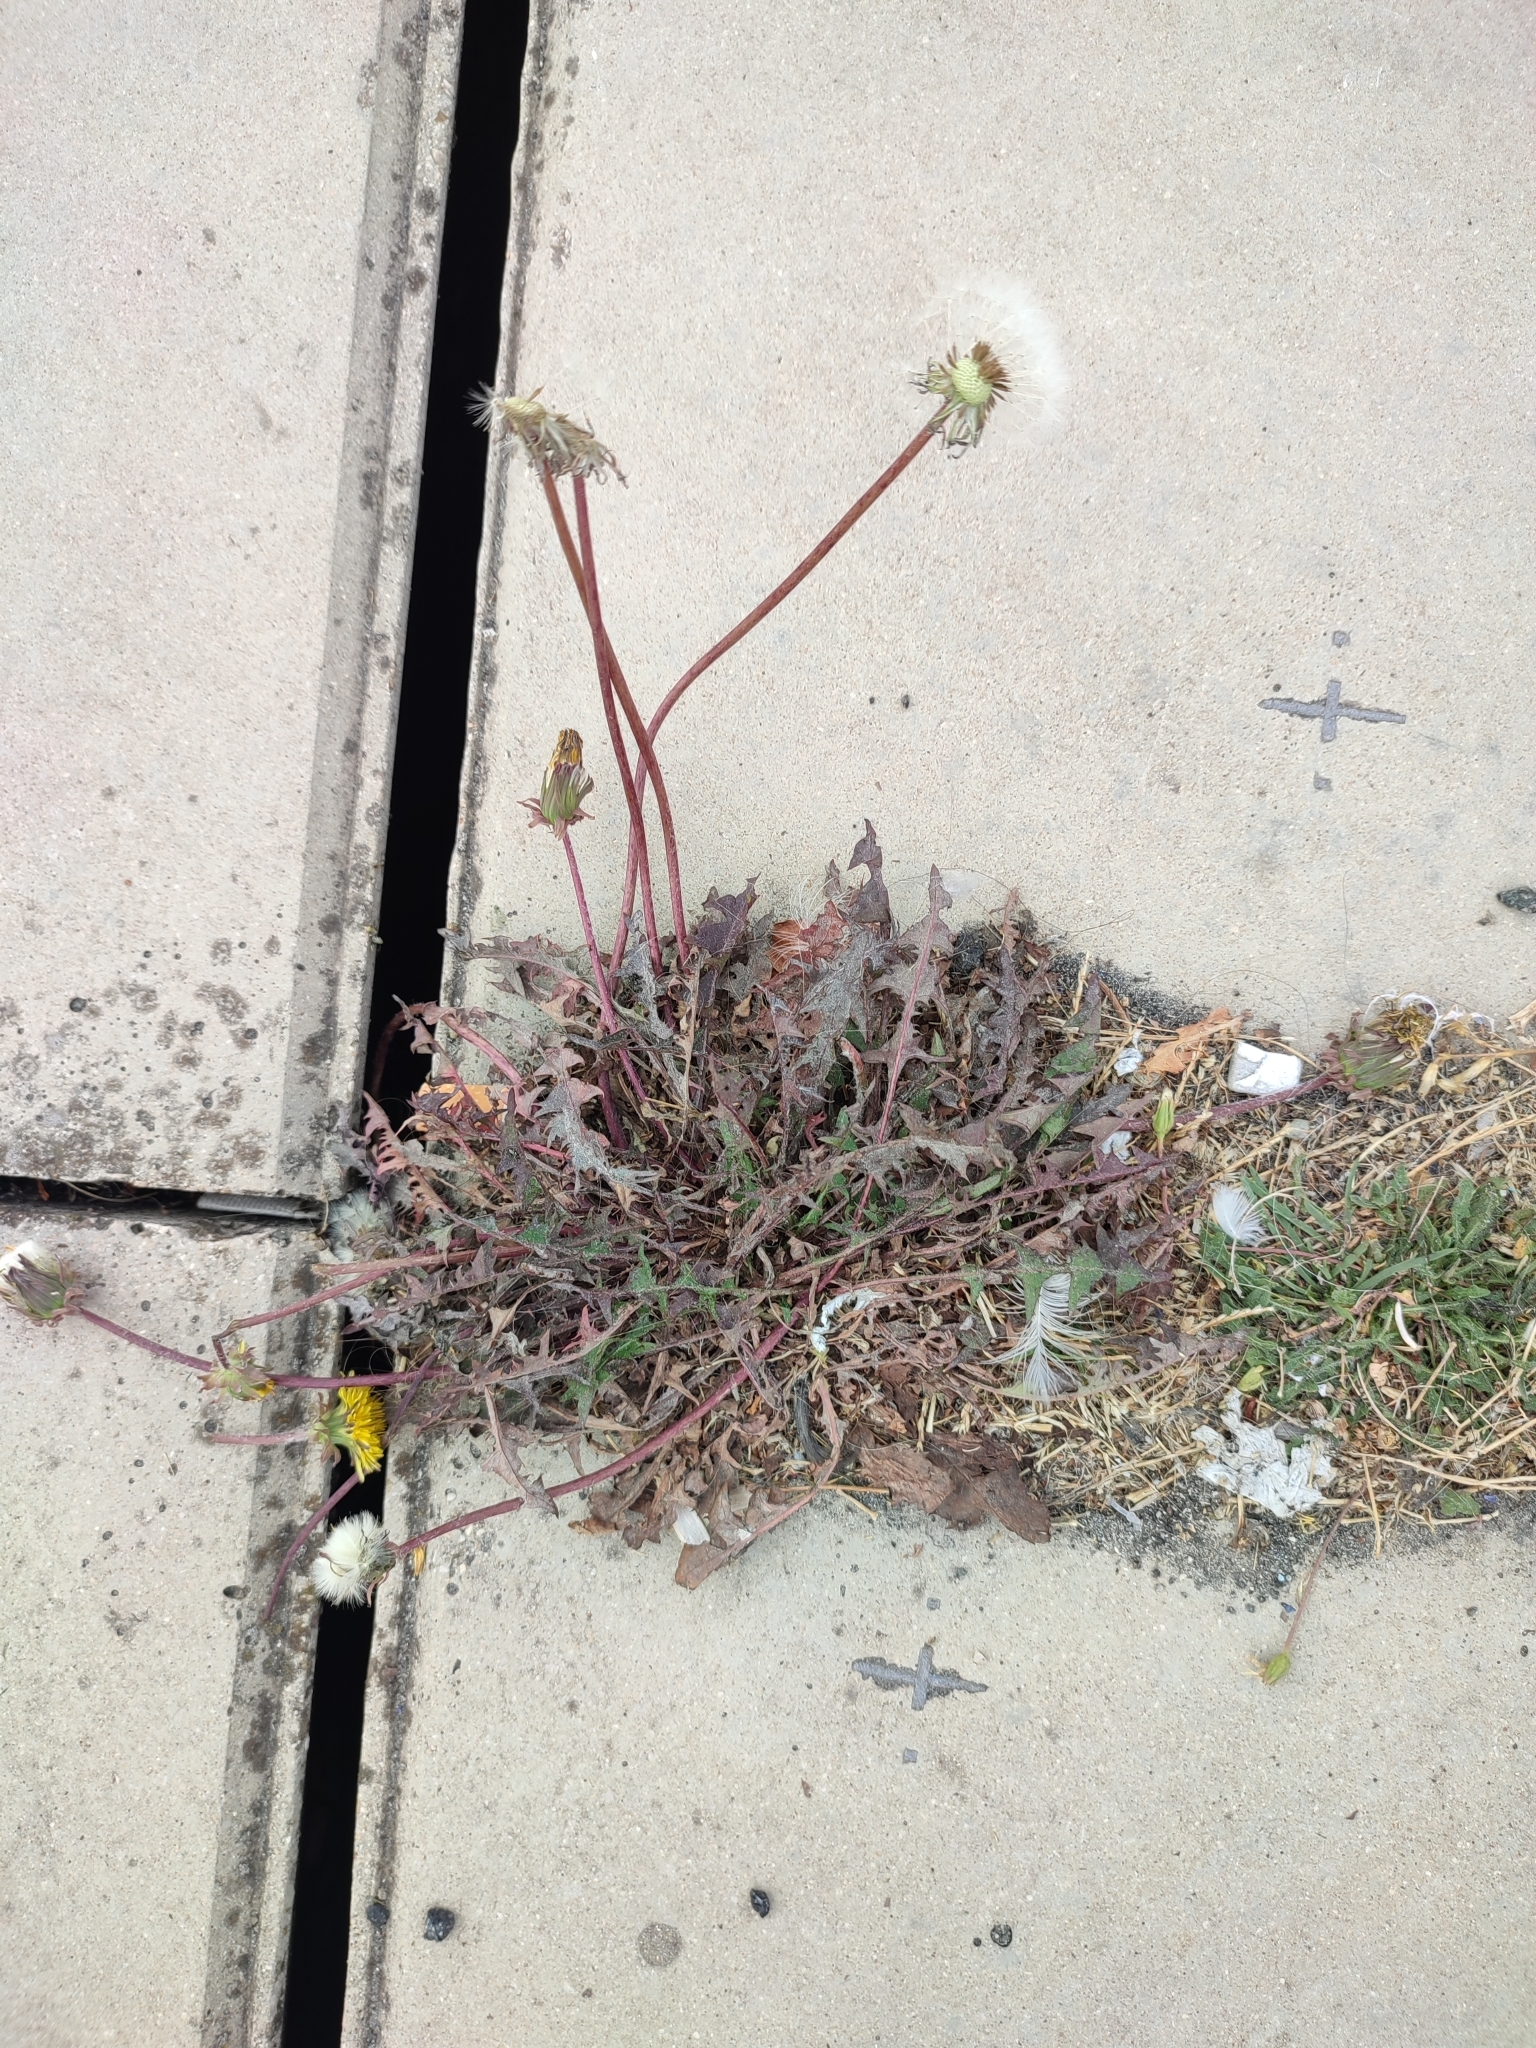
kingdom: Plantae
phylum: Tracheophyta
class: Magnoliopsida
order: Asterales
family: Asteraceae
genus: Taraxacum
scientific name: Taraxacum officinale
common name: Common dandelion
